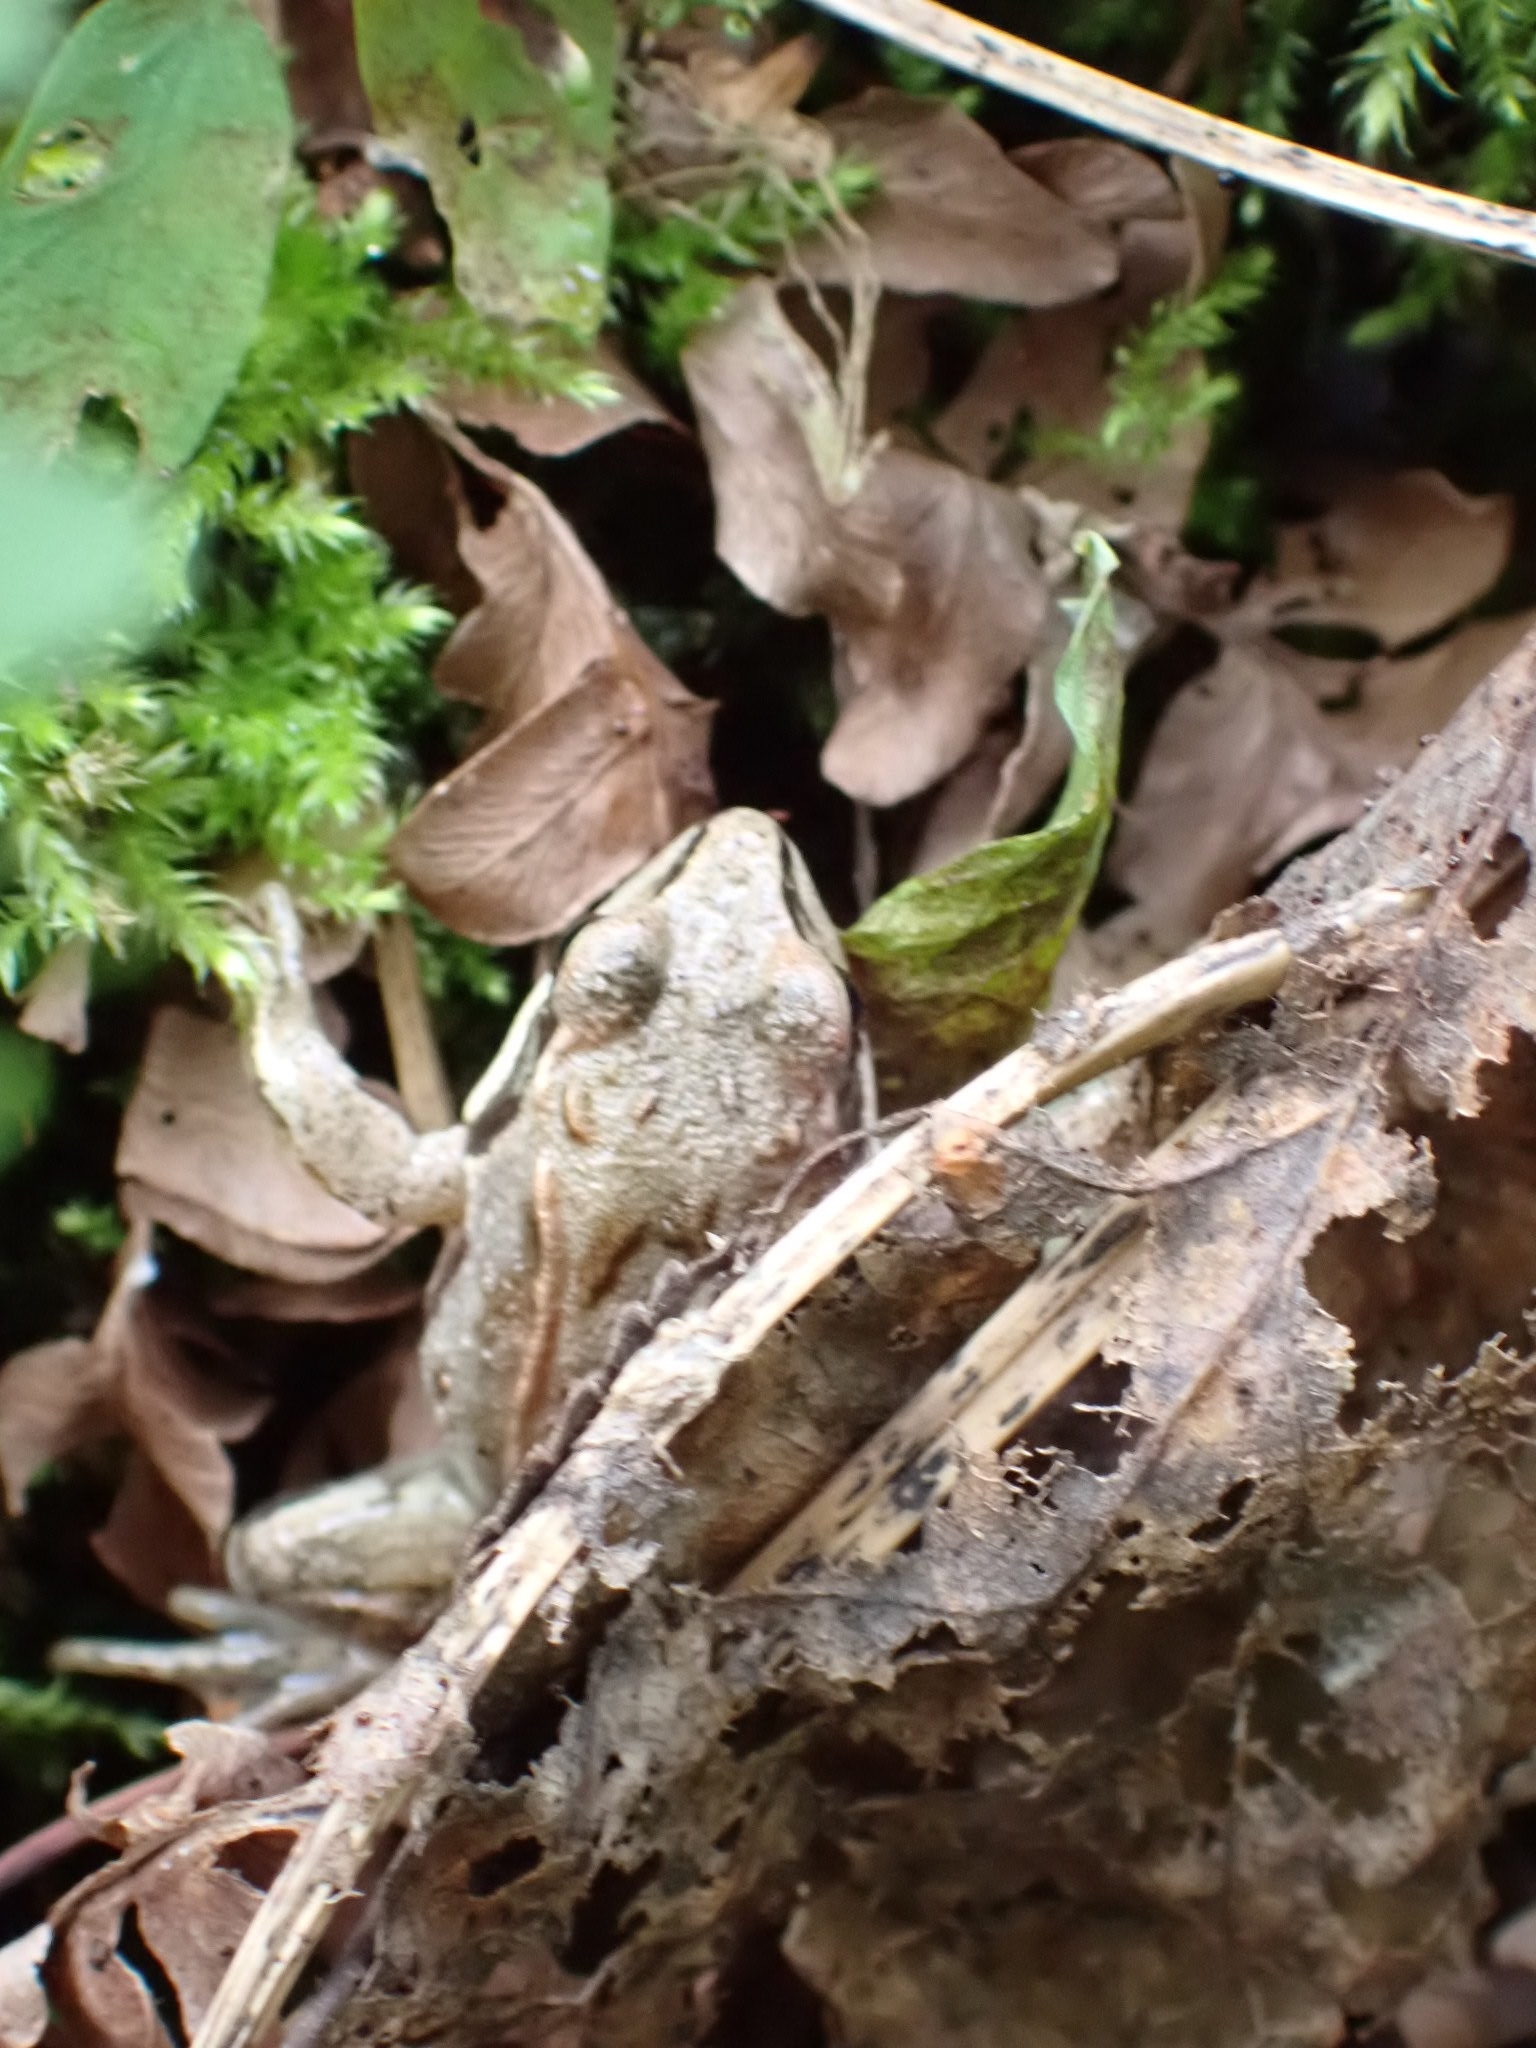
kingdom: Animalia
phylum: Chordata
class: Amphibia
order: Anura
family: Ranidae
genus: Rana
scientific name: Rana arvalis
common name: Moor frog
